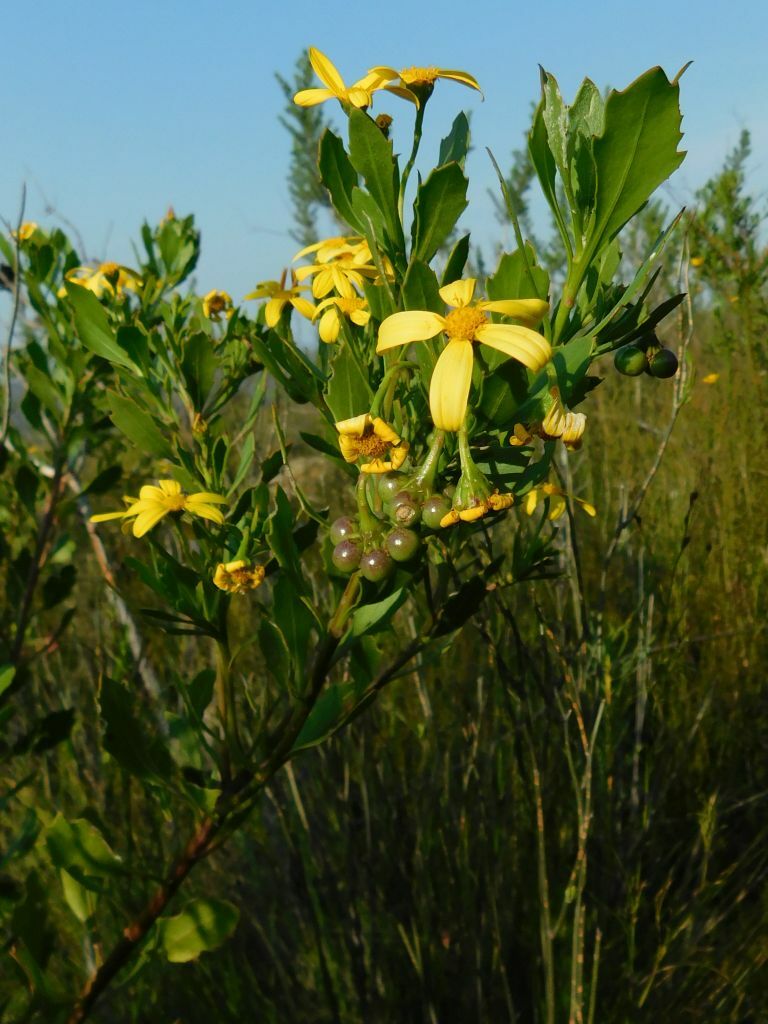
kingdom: Plantae
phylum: Tracheophyta
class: Magnoliopsida
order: Asterales
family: Asteraceae
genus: Osteospermum
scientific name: Osteospermum moniliferum
